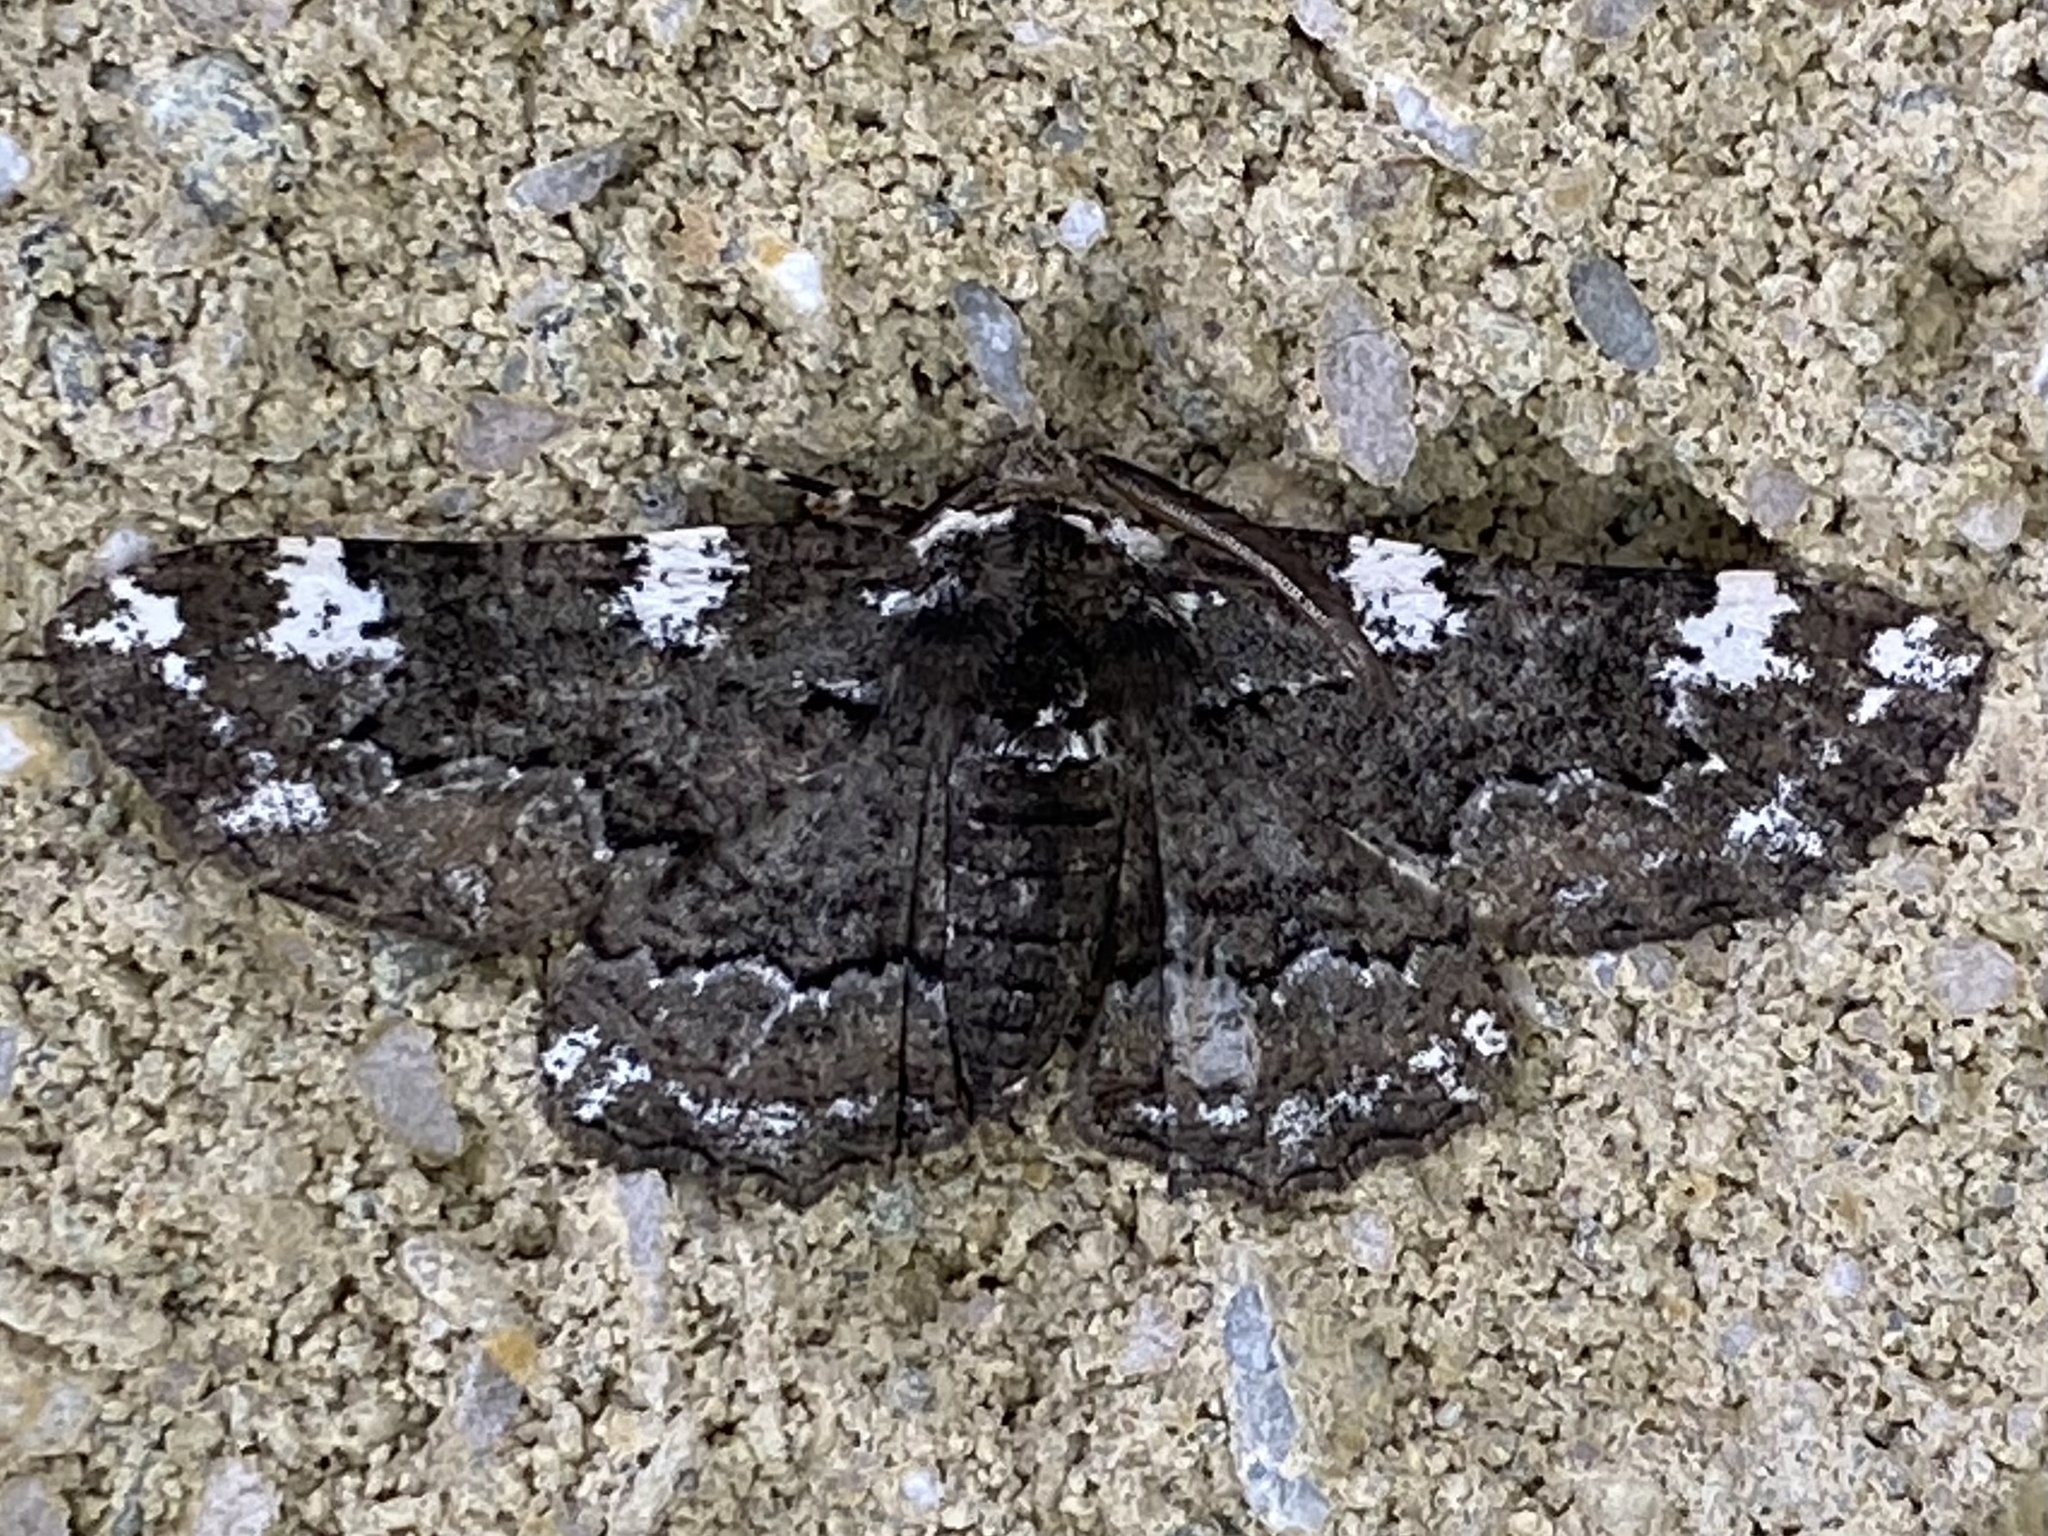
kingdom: Animalia
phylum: Arthropoda
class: Insecta
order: Lepidoptera
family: Geometridae
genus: Phaeoura
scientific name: Phaeoura quernaria
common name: Oak beauty
